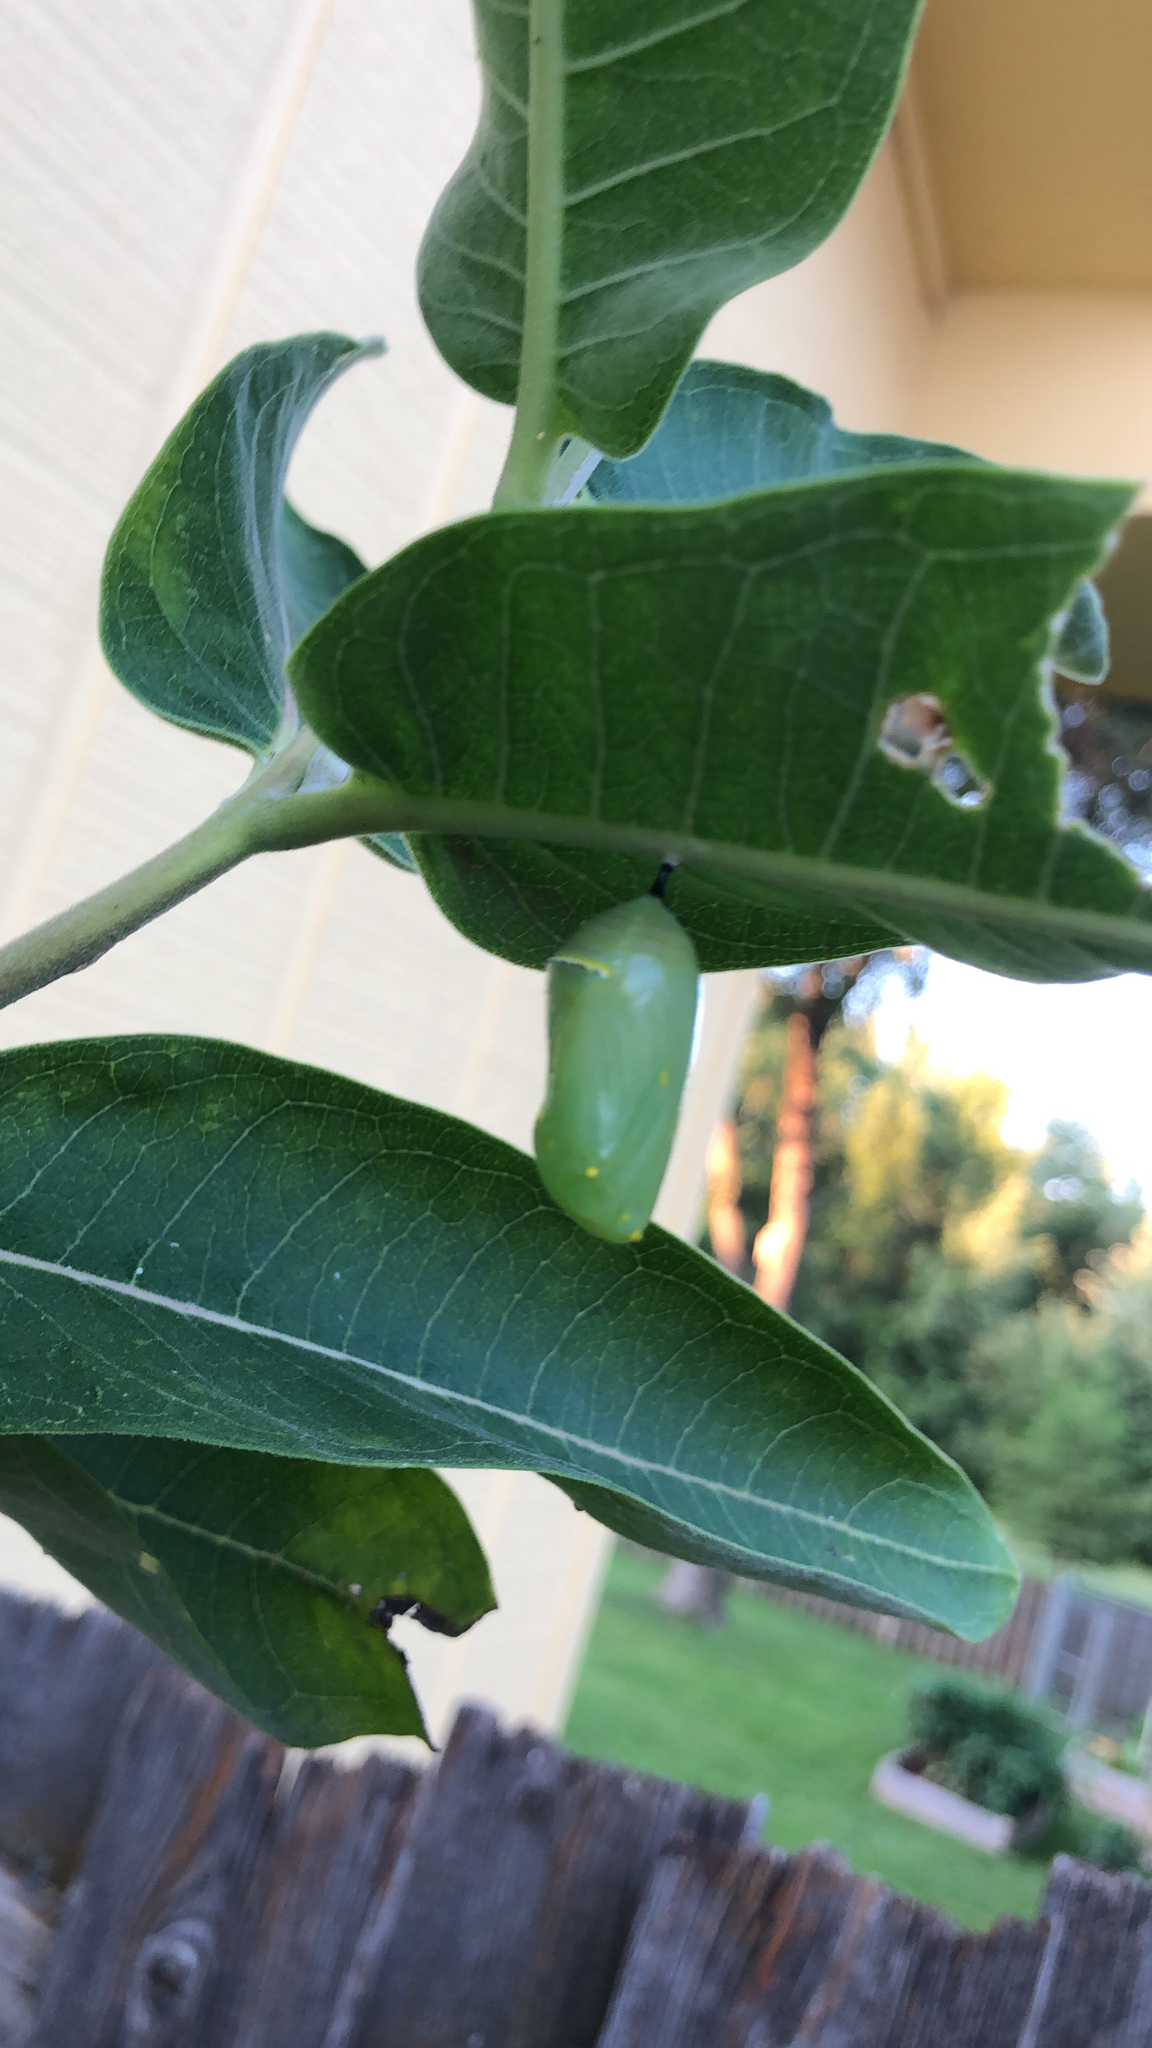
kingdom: Animalia
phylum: Arthropoda
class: Insecta
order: Lepidoptera
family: Nymphalidae
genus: Danaus
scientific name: Danaus plexippus
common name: Monarch
